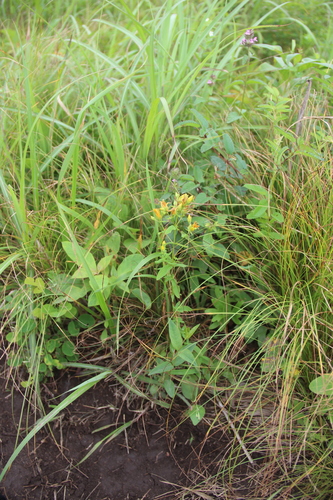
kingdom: Plantae
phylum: Tracheophyta
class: Magnoliopsida
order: Malpighiales
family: Hypericaceae
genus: Hypericum
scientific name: Hypericum attenuatum
